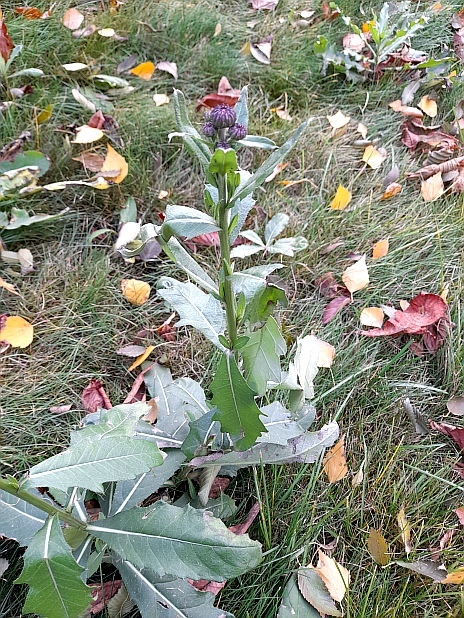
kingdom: Plantae
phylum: Tracheophyta
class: Magnoliopsida
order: Asterales
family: Asteraceae
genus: Cirsium
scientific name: Cirsium arvense
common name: Creeping thistle
